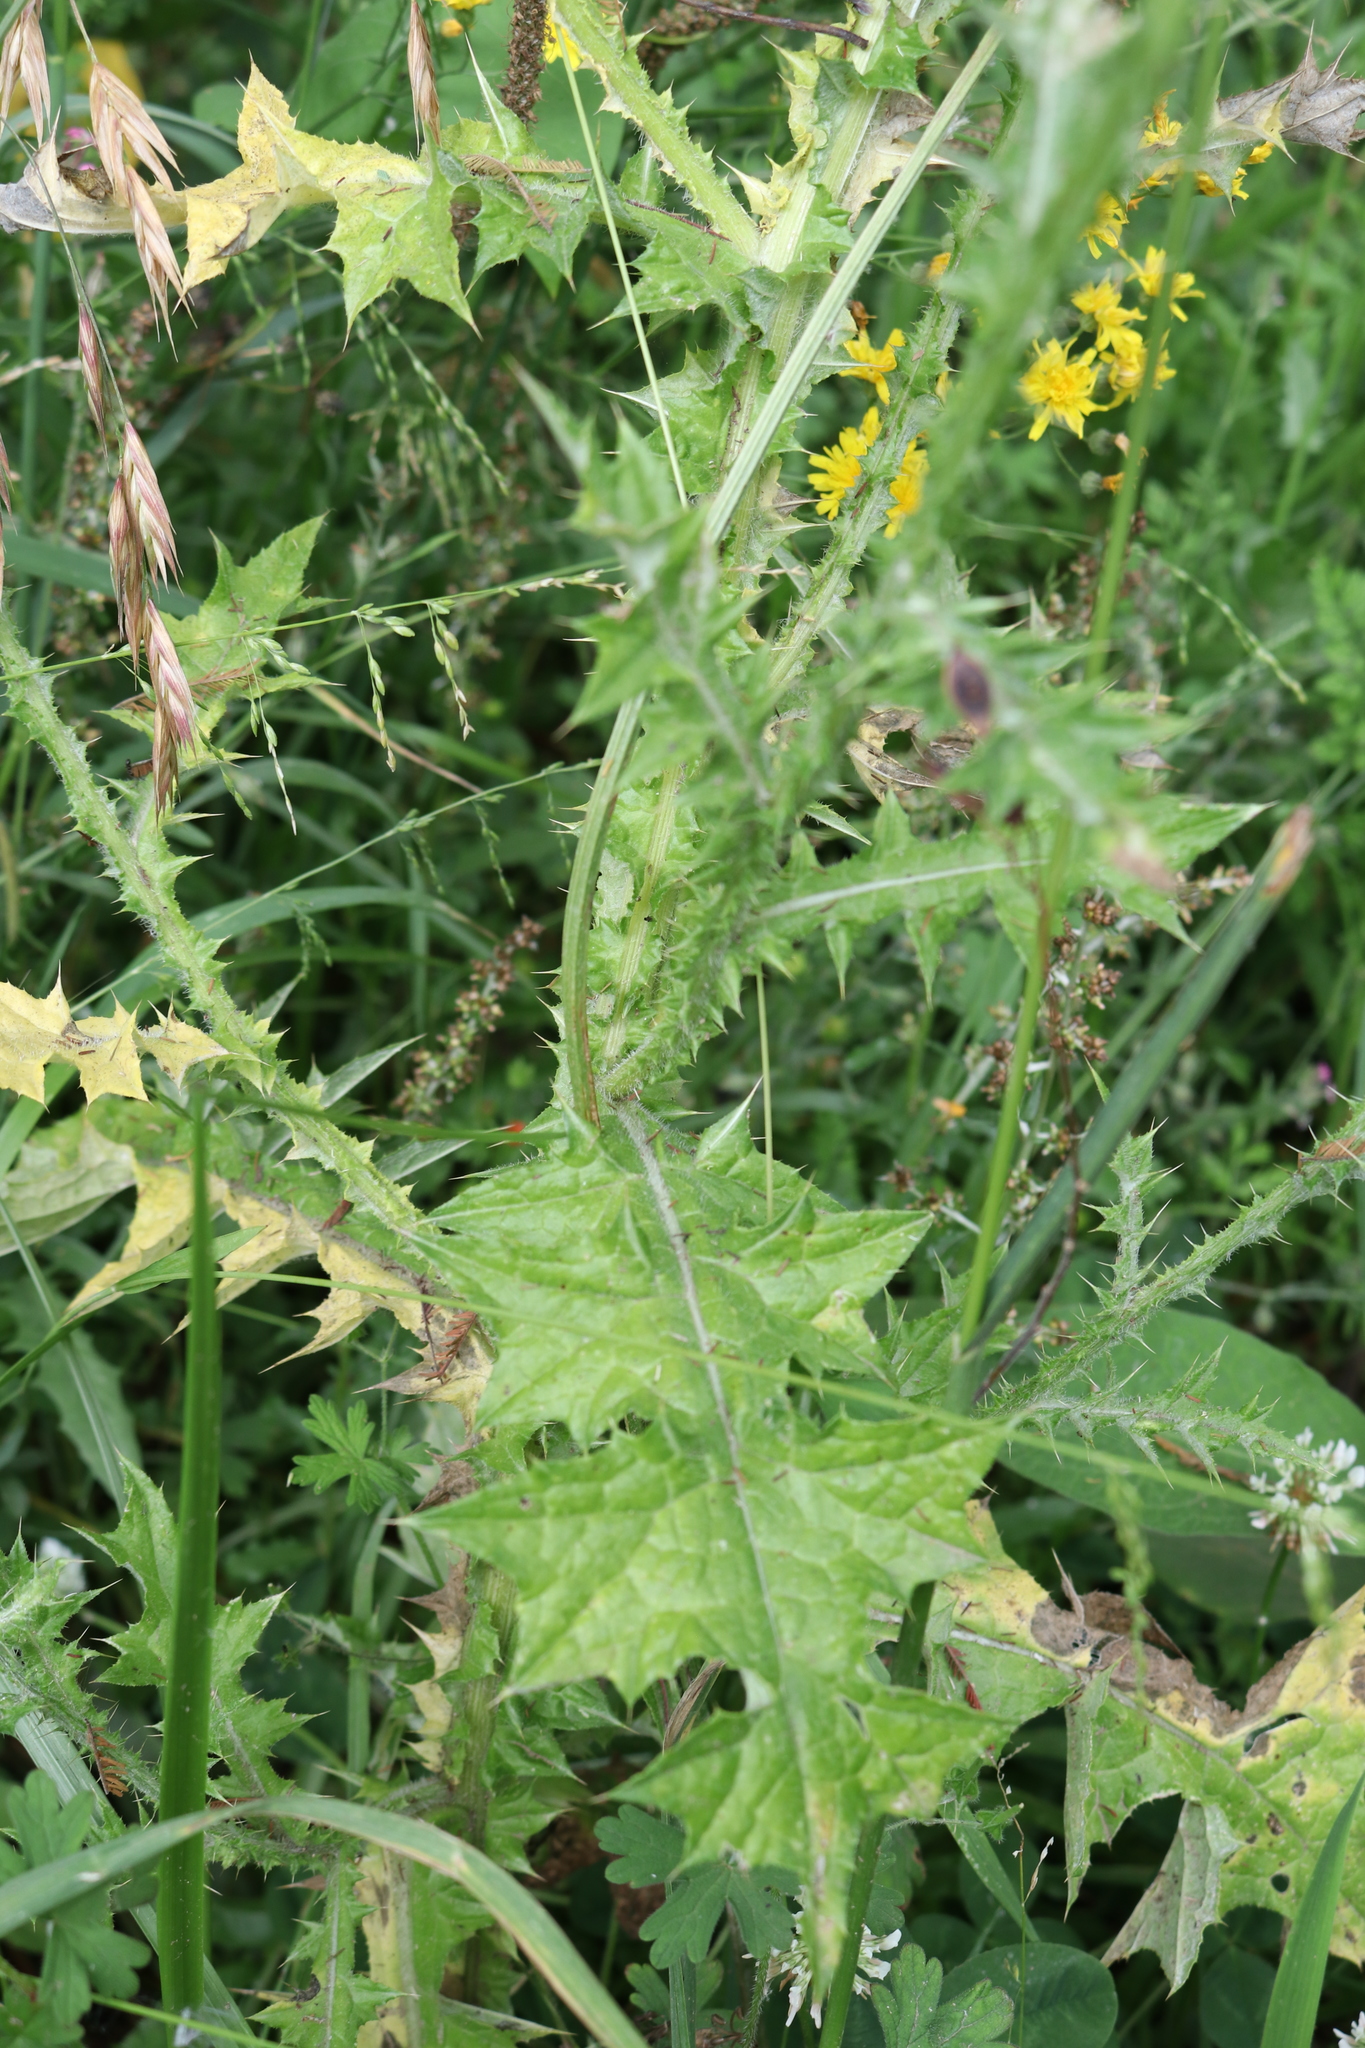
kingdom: Plantae
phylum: Tracheophyta
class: Magnoliopsida
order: Asterales
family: Asteraceae
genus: Carduus
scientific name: Carduus pycnocephalus
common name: Plymouth thistle
